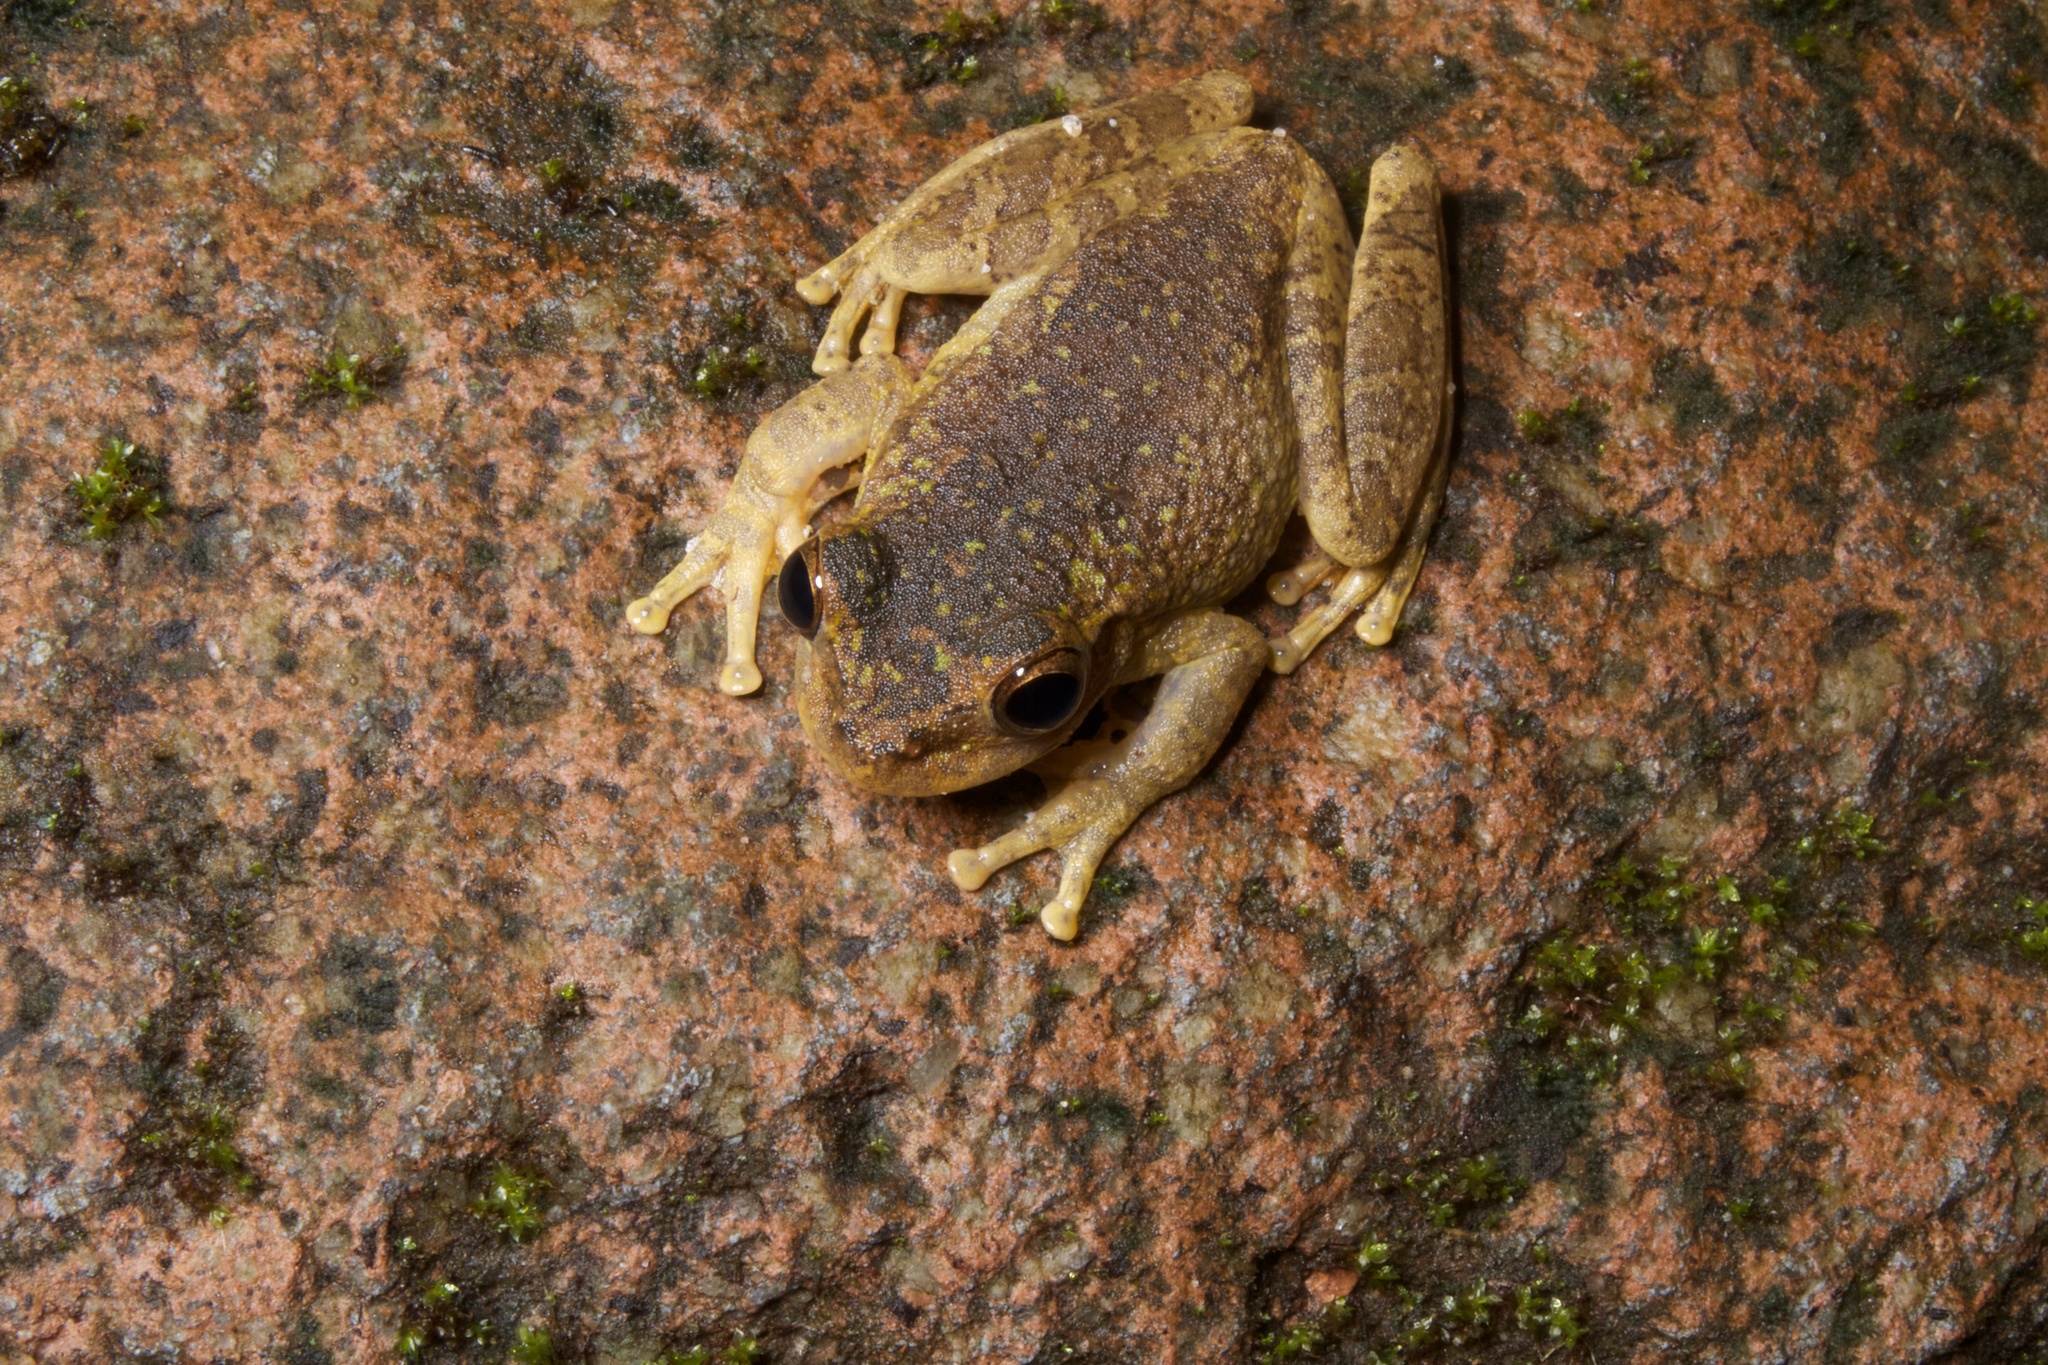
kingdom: Animalia
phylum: Chordata
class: Amphibia
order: Anura
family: Hylidae
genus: Smilisca
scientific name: Smilisca sila
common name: Panama cross-banded treefrog
